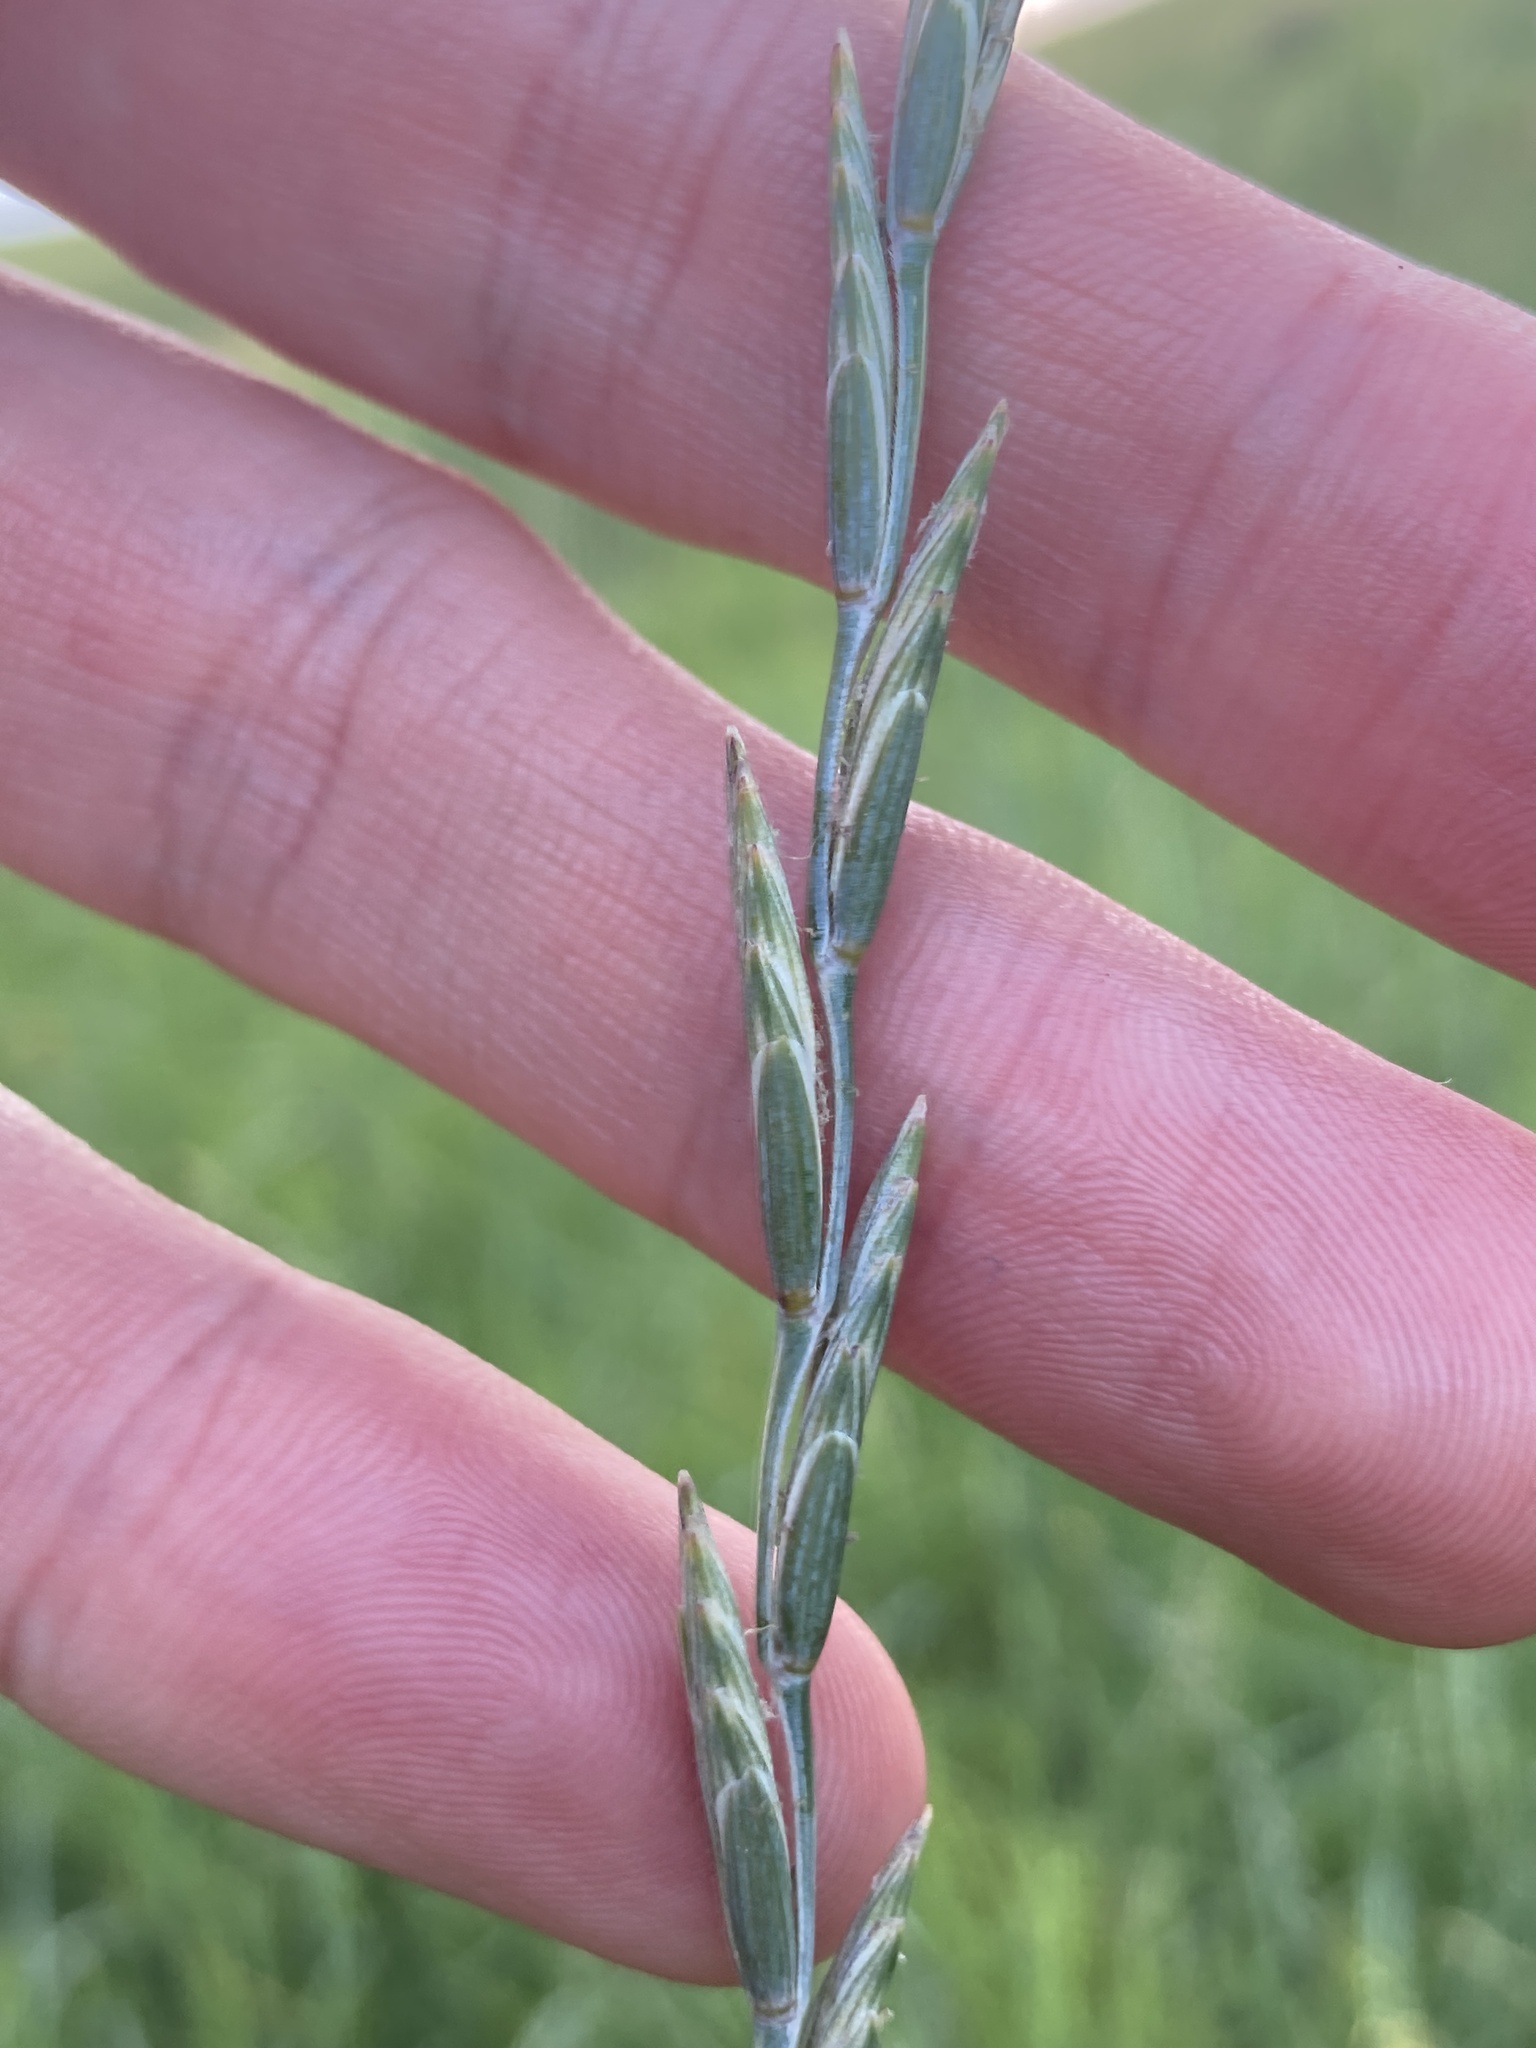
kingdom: Plantae
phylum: Tracheophyta
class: Liliopsida
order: Poales
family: Poaceae
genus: Thinopyrum
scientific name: Thinopyrum intermedium
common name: Intermediate wheatgrass
